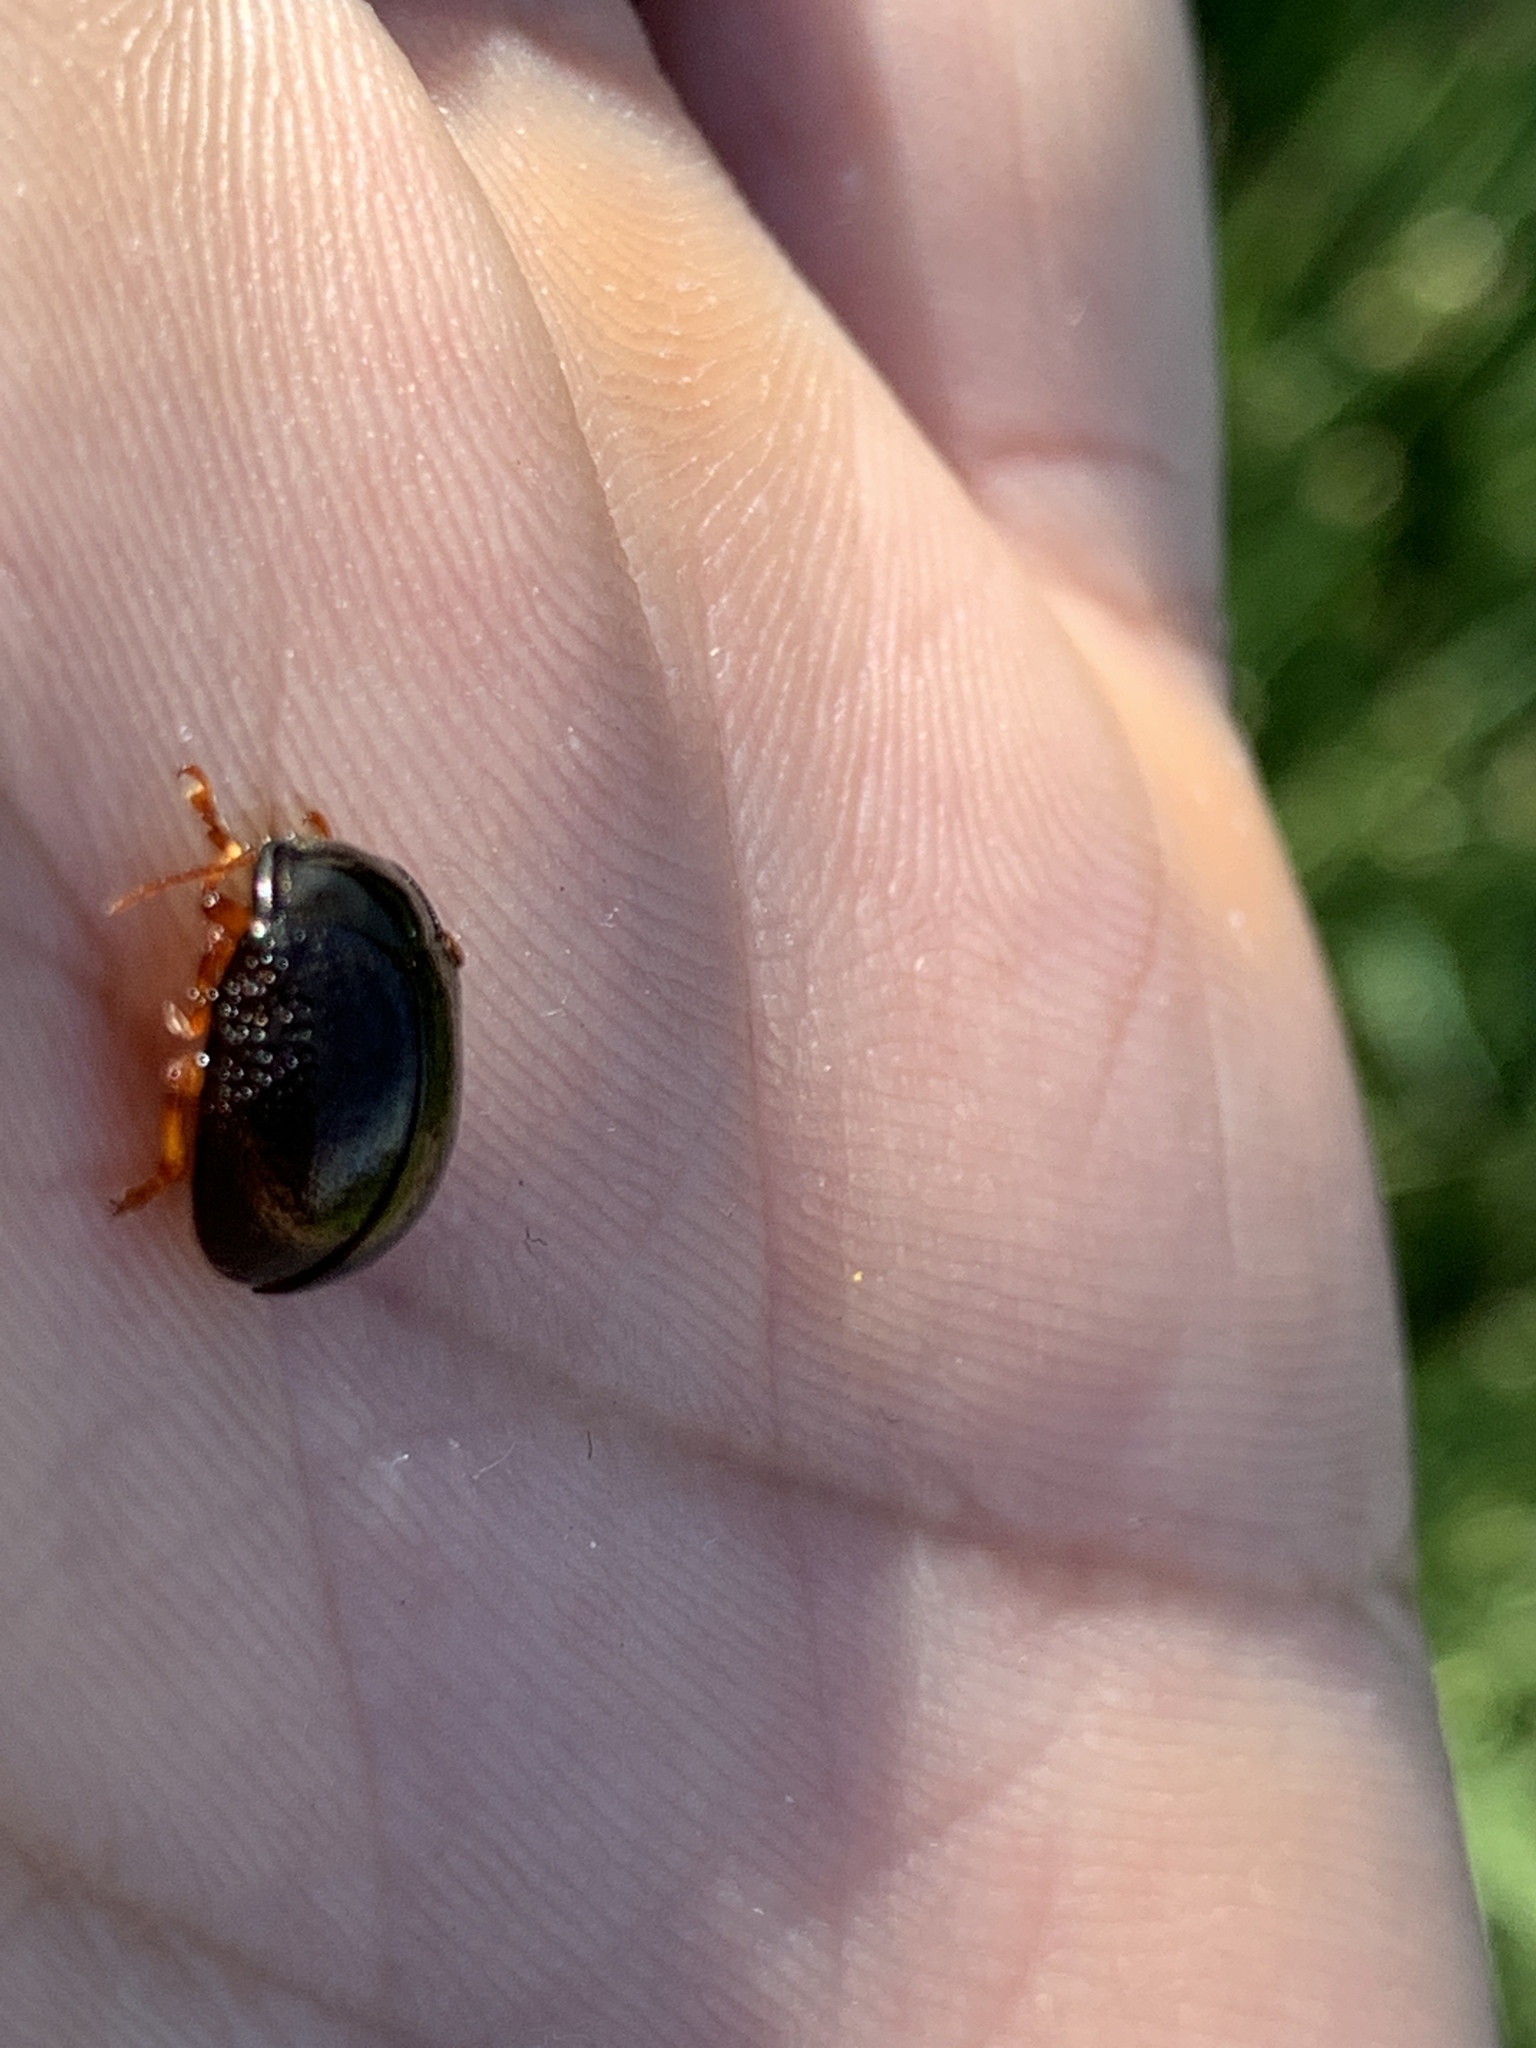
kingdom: Animalia
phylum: Arthropoda
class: Insecta
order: Coleoptera
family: Chrysomelidae
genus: Chrysolina
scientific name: Chrysolina bankii
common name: Leaf beetle
